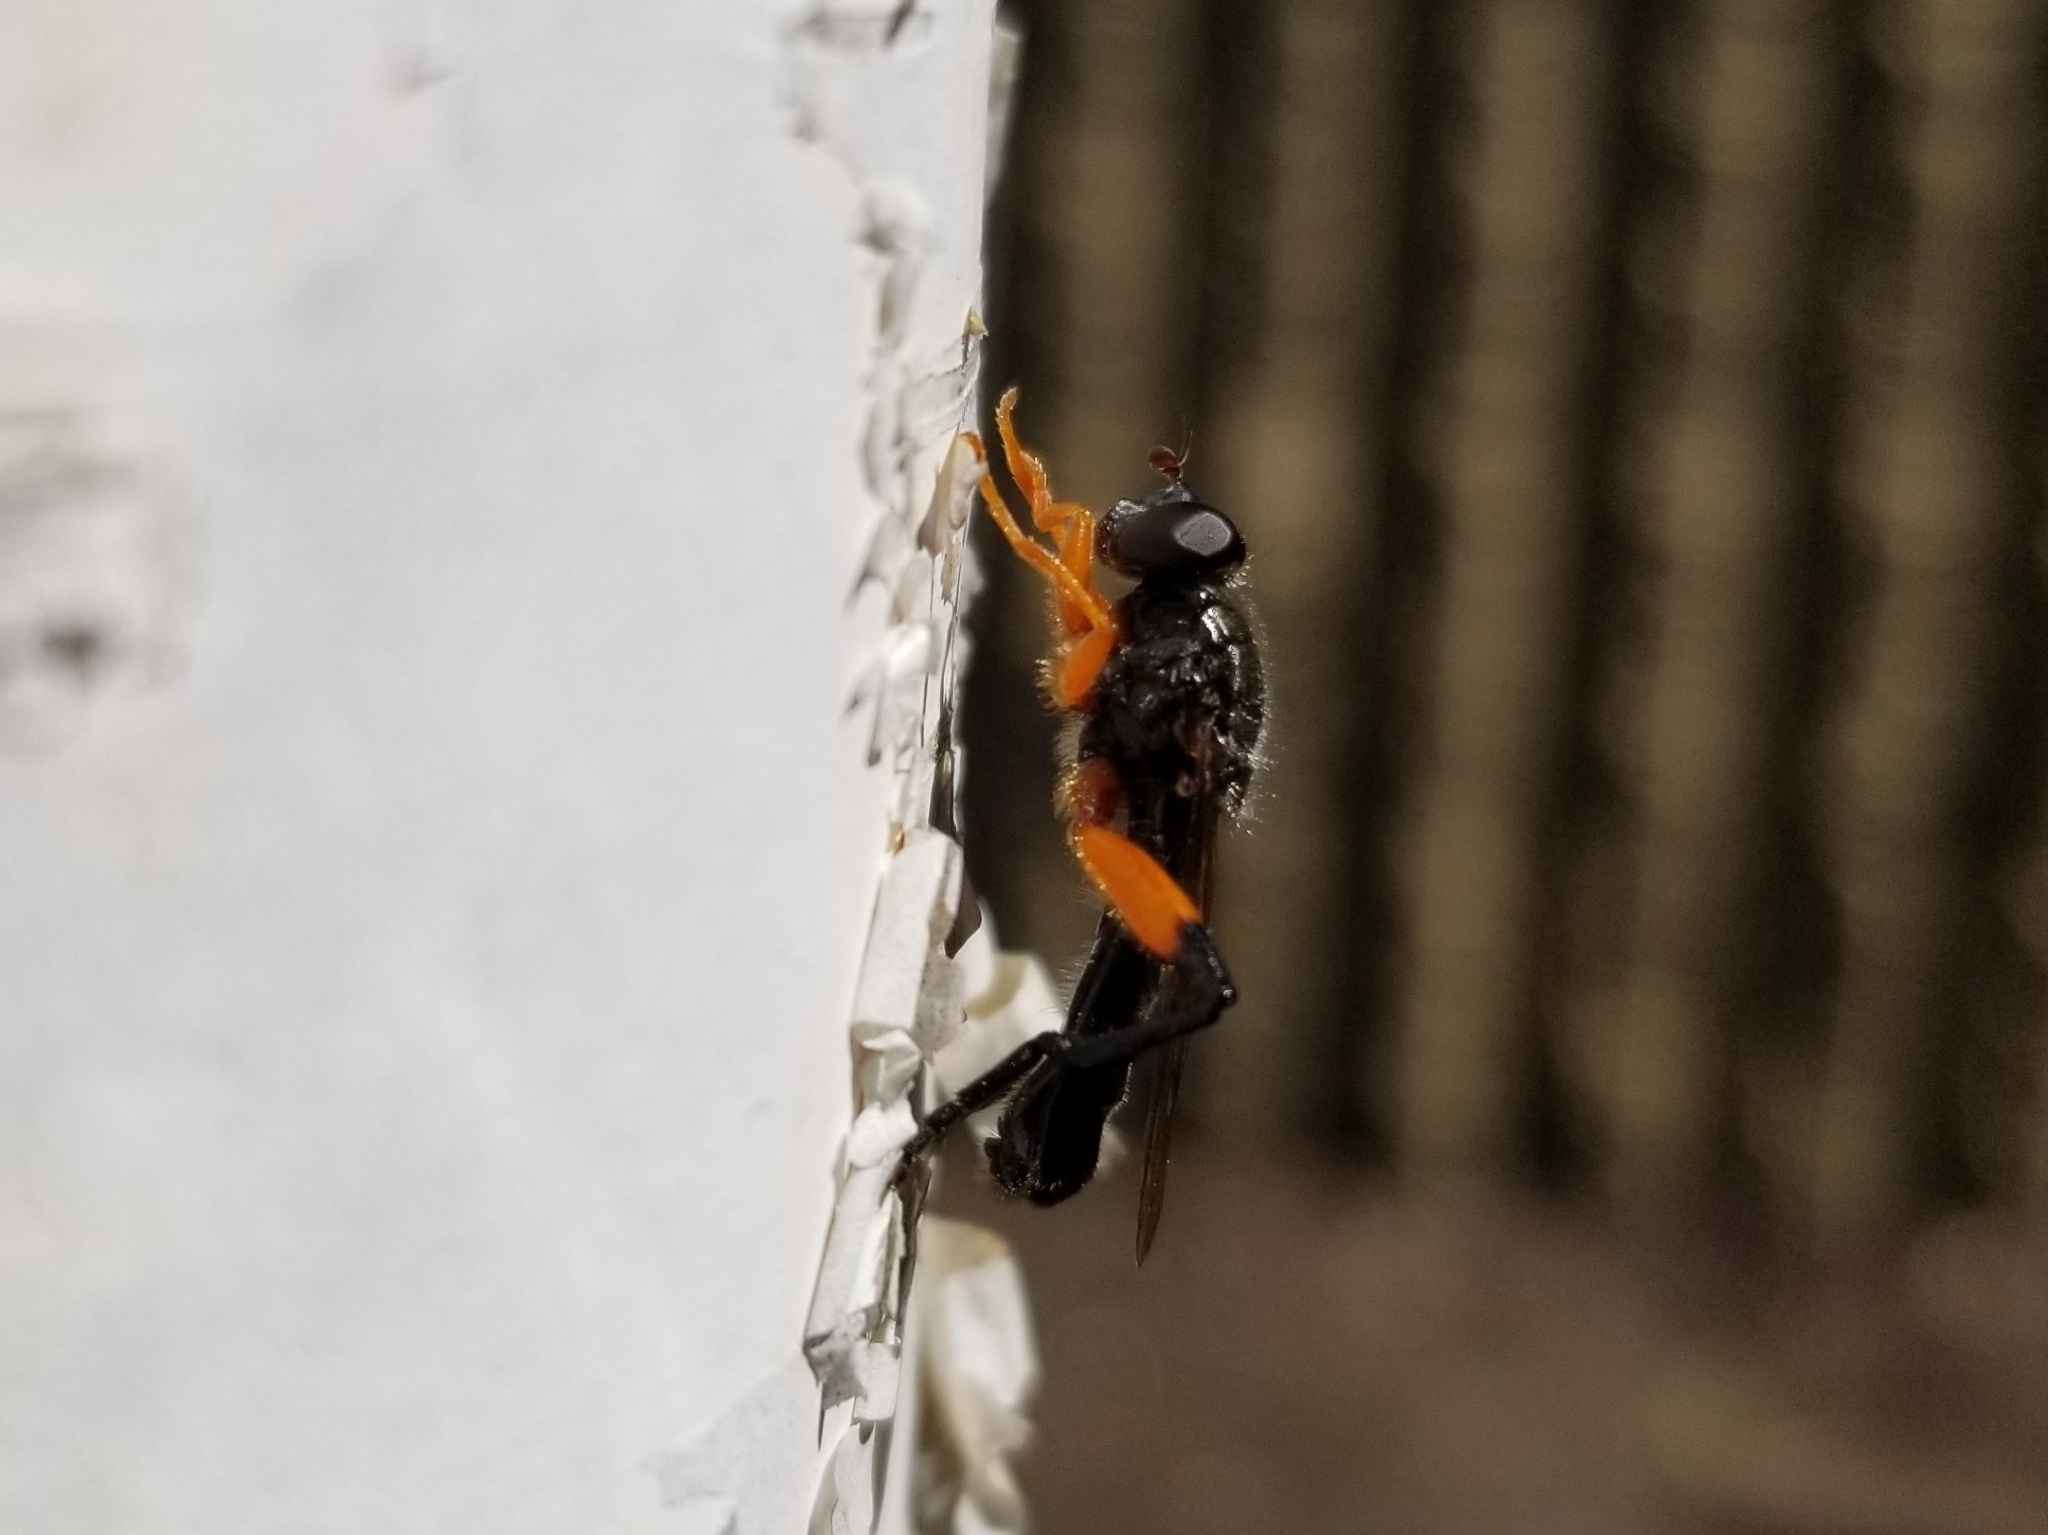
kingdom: Animalia
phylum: Arthropoda
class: Insecta
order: Diptera
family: Syrphidae
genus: Chalcosyrphus
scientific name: Chalcosyrphus vecors
